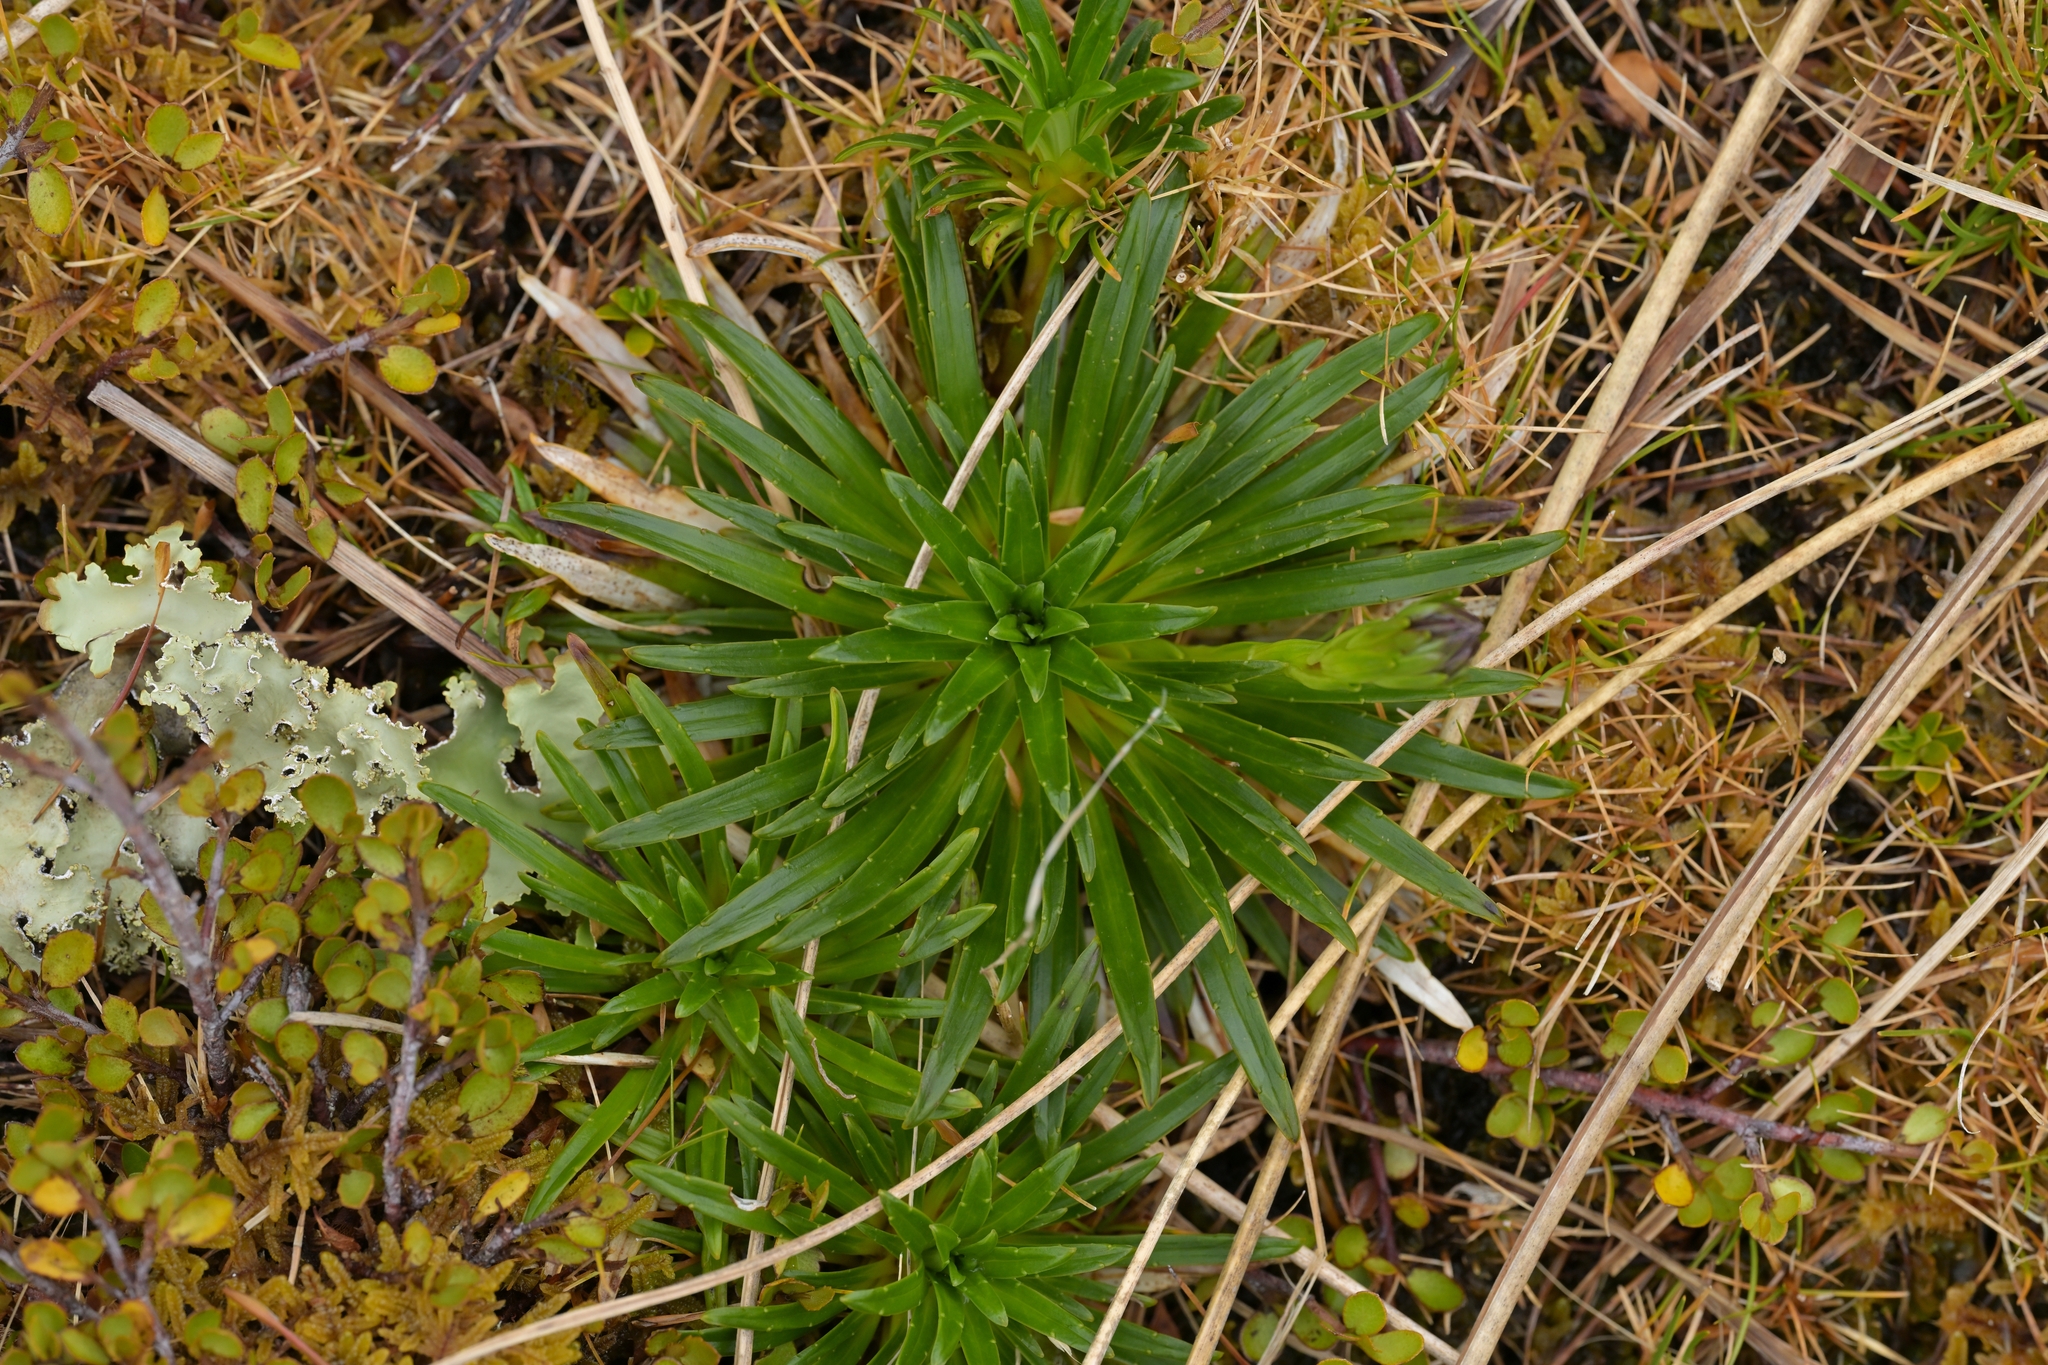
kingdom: Plantae
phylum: Tracheophyta
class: Magnoliopsida
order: Asterales
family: Asteraceae
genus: Damnamenia
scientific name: Damnamenia vernicosa
